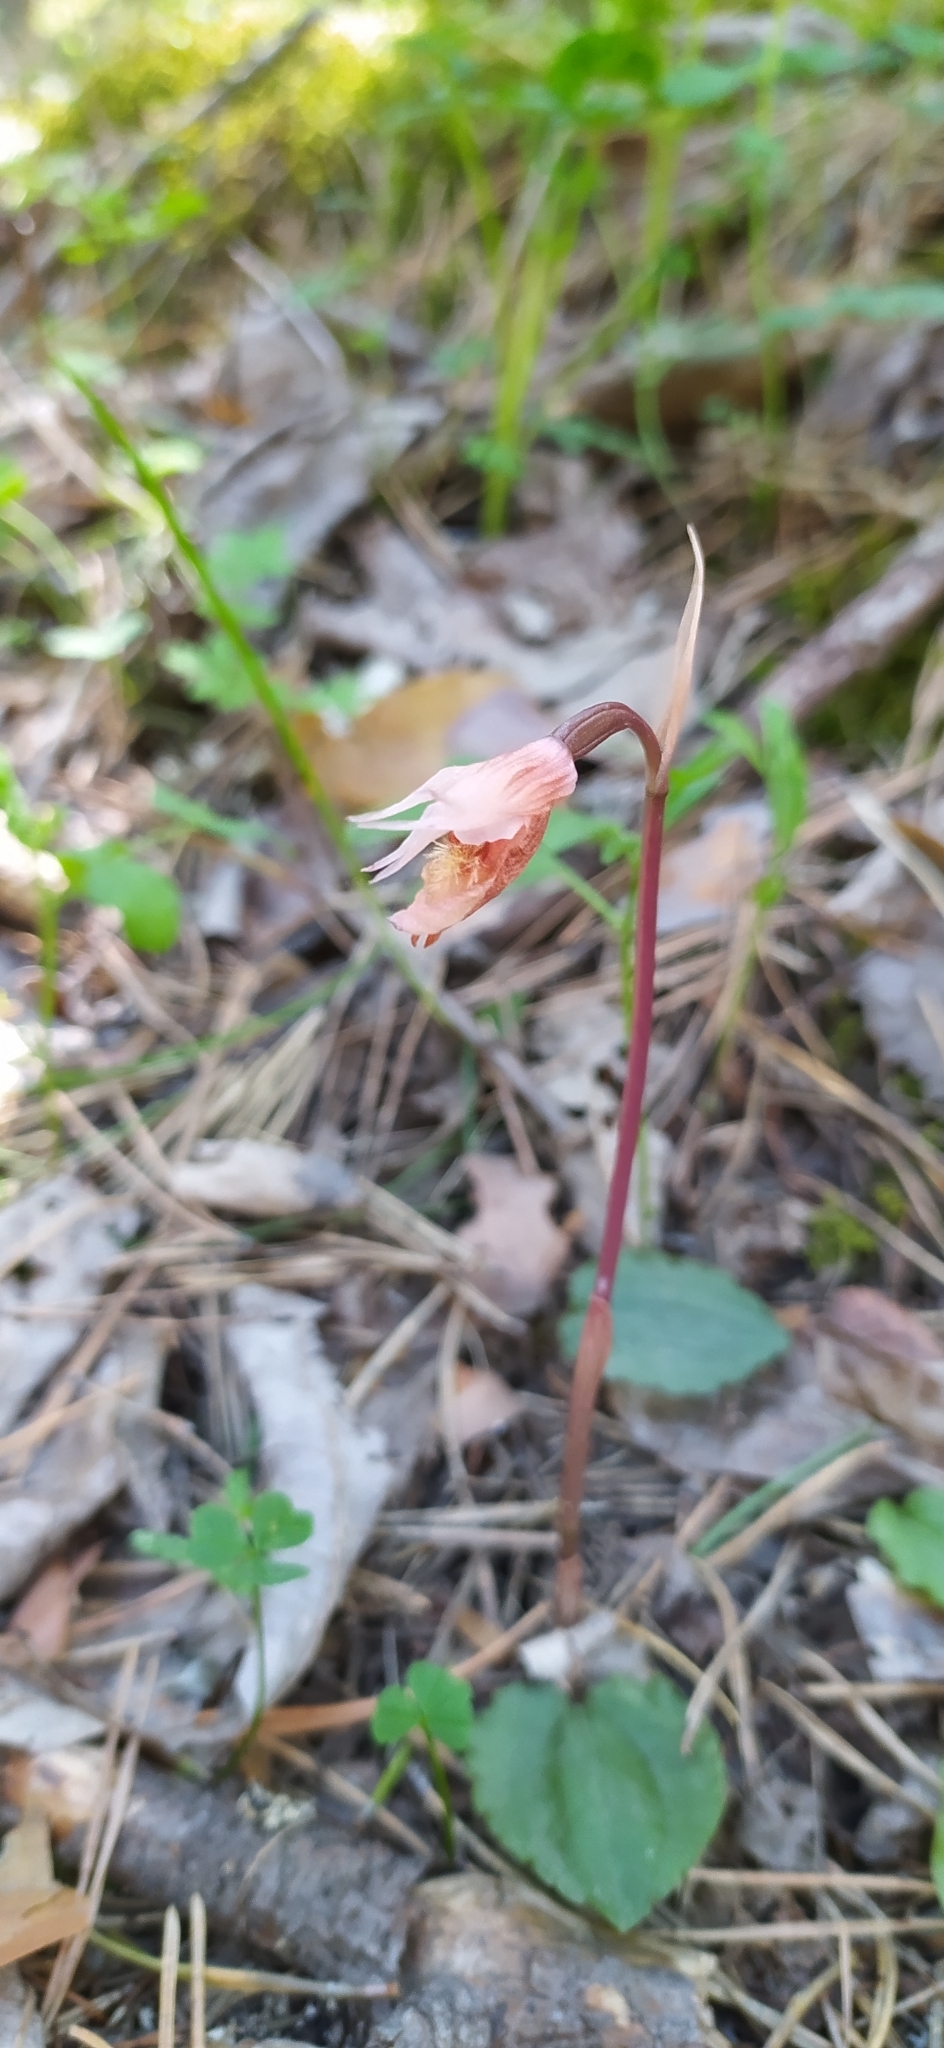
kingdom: Plantae
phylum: Tracheophyta
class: Liliopsida
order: Asparagales
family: Orchidaceae
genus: Calypso
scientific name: Calypso bulbosa
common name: Calypso
